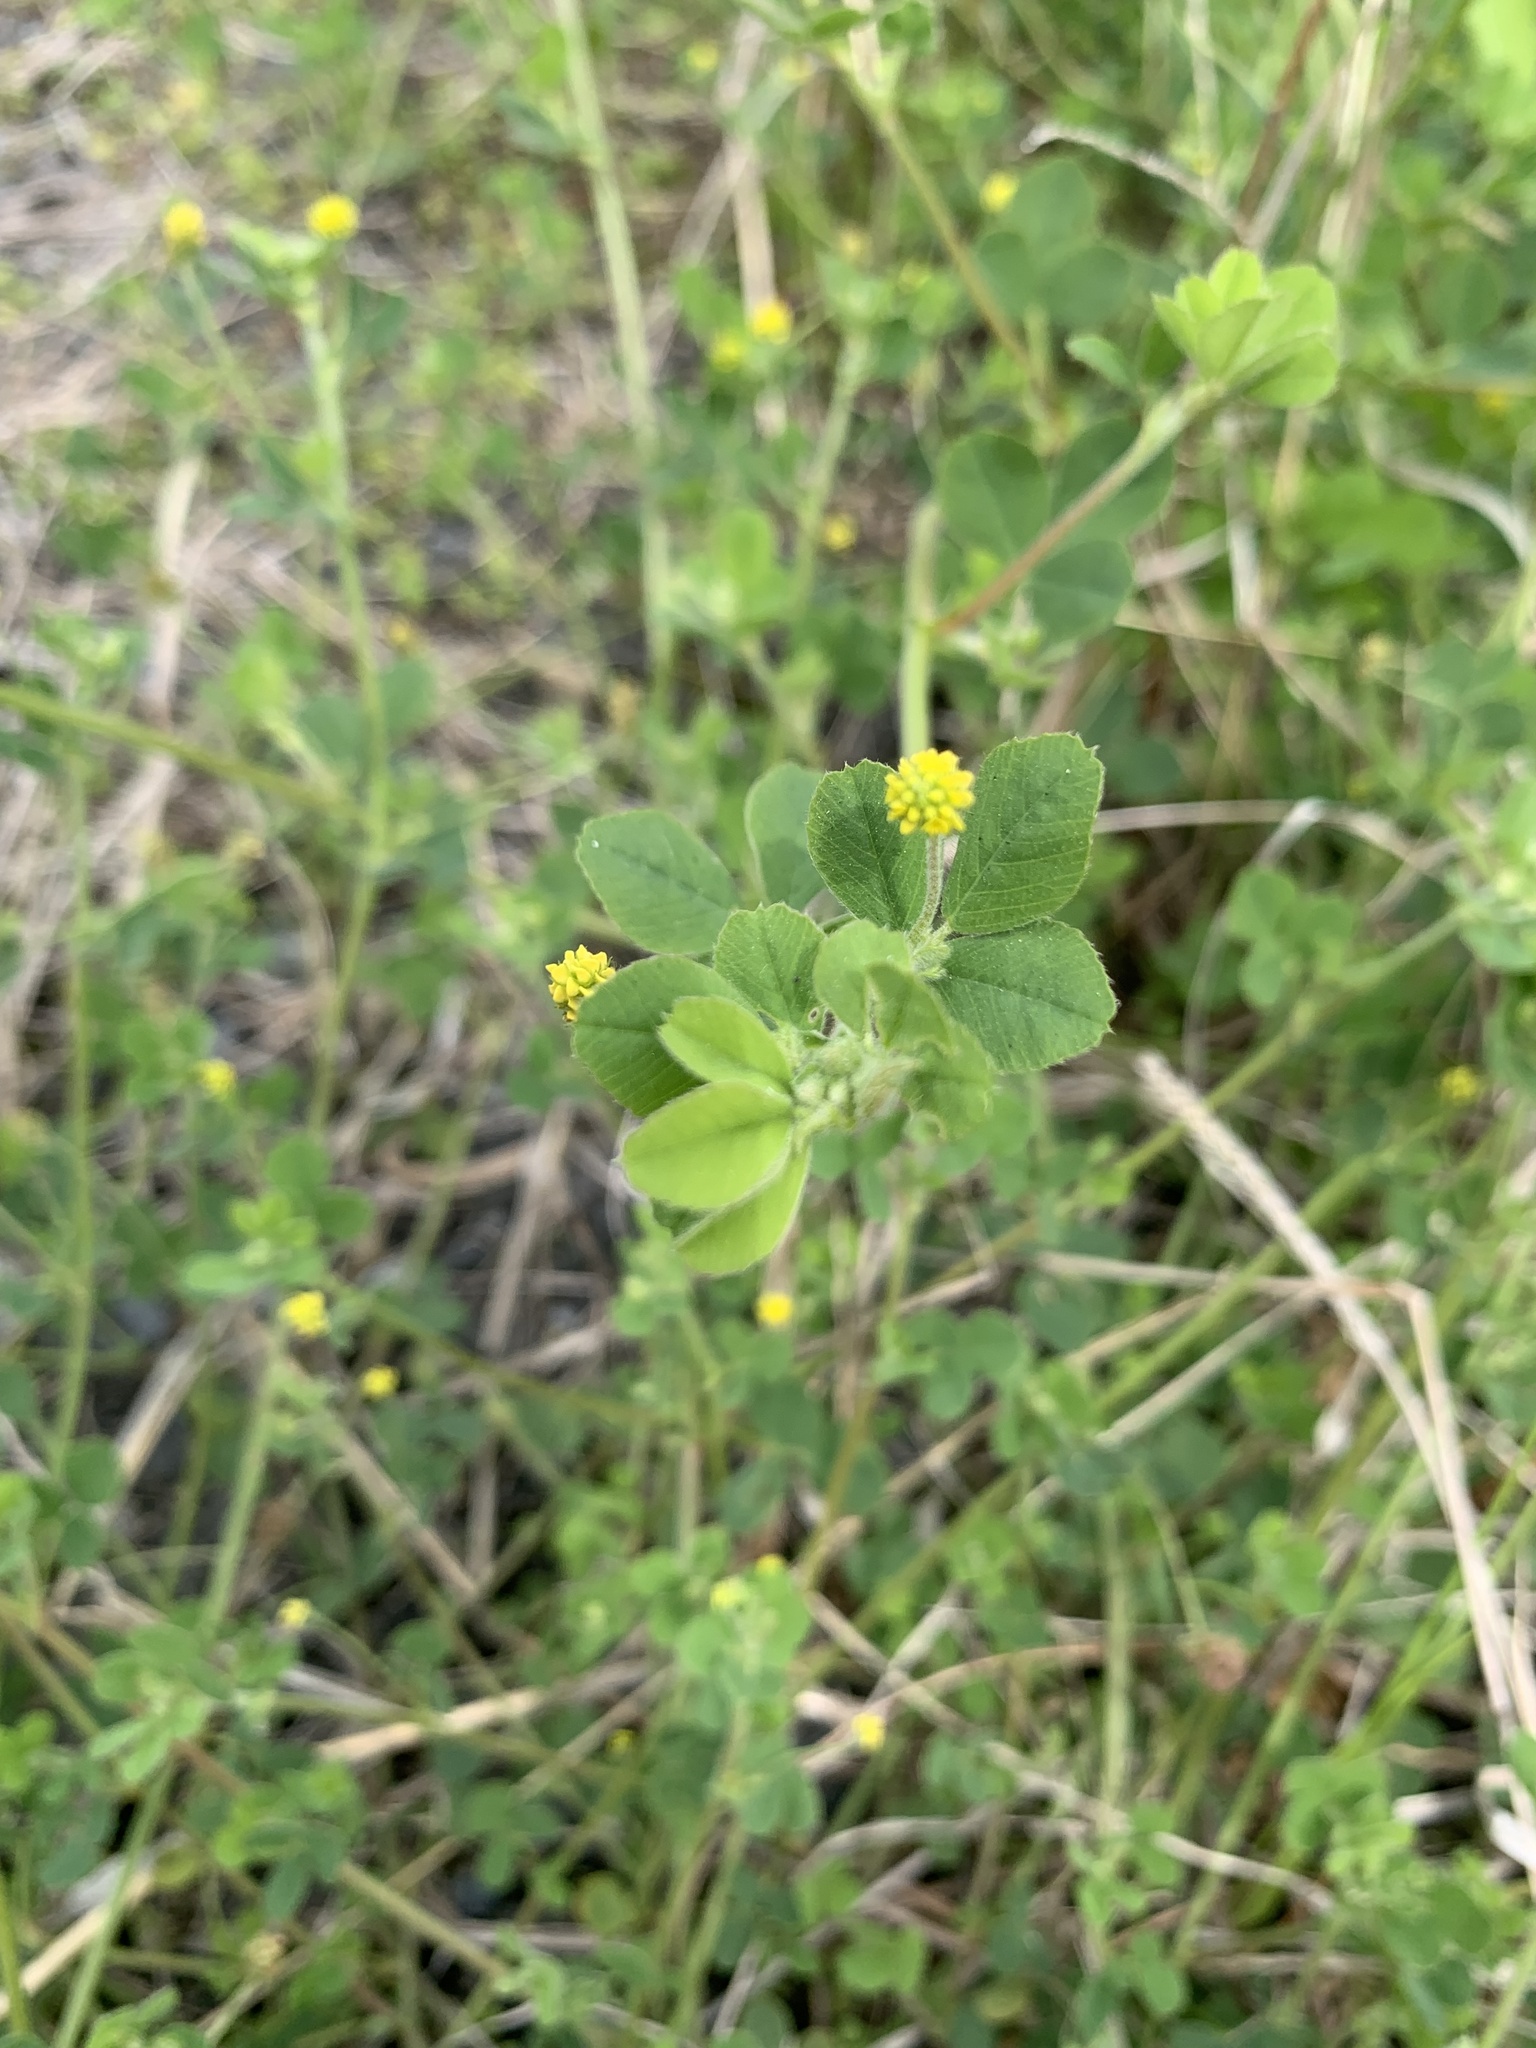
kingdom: Plantae
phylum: Tracheophyta
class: Magnoliopsida
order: Fabales
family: Fabaceae
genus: Medicago
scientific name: Medicago lupulina
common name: Black medick
